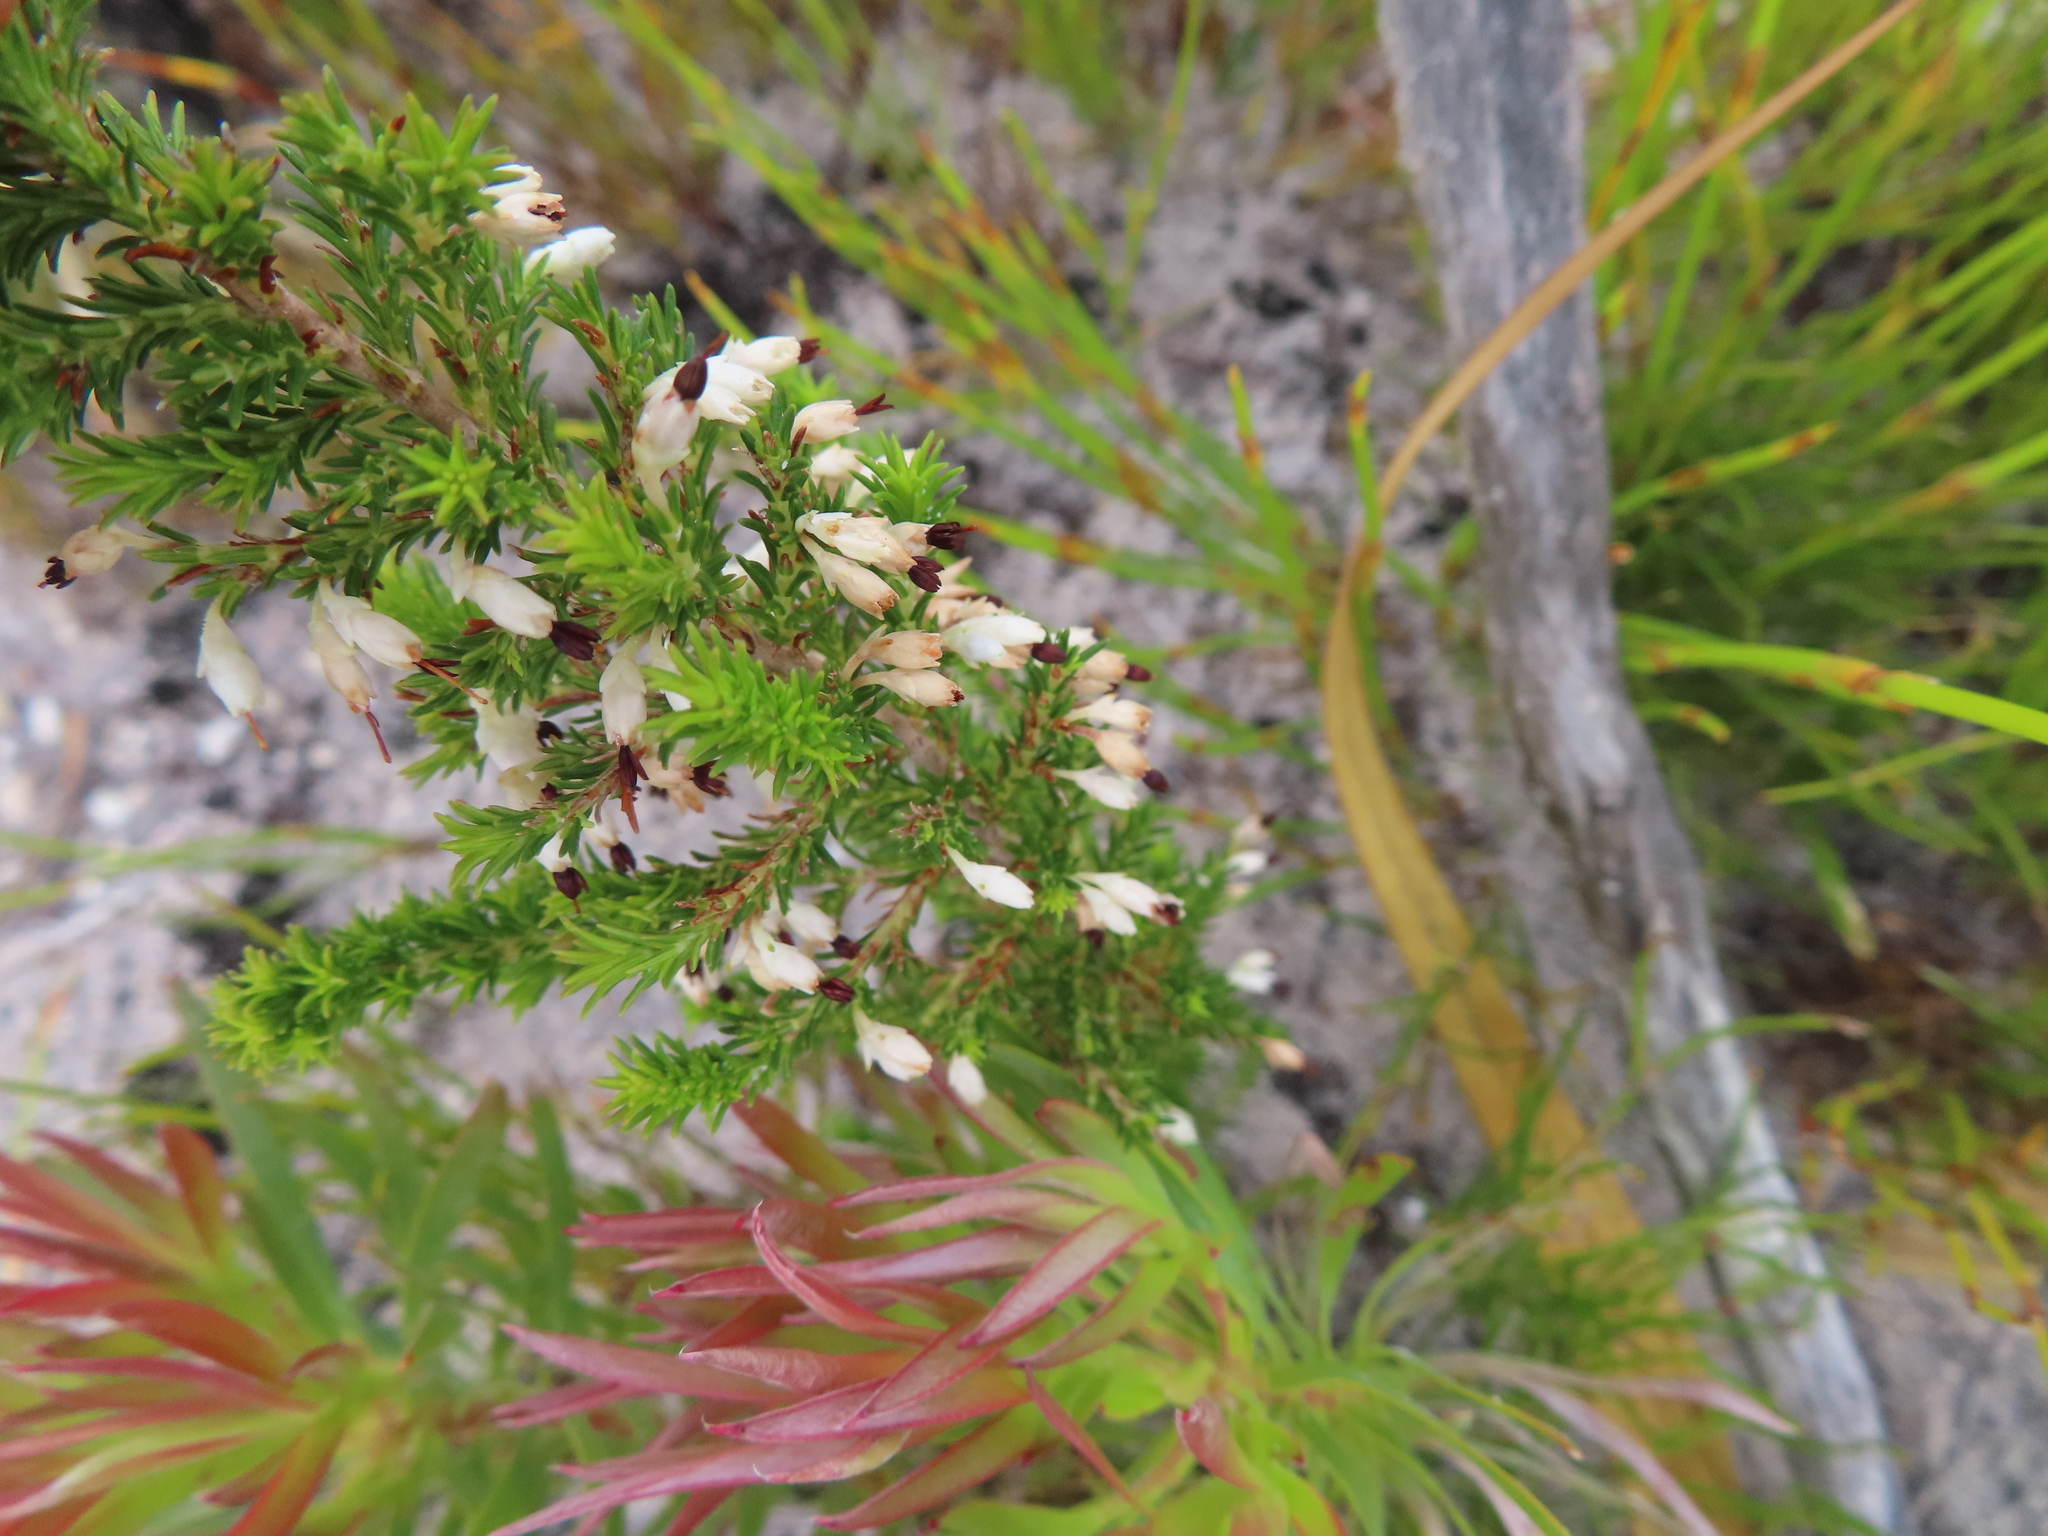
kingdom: Plantae
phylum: Tracheophyta
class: Magnoliopsida
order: Ericales
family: Ericaceae
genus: Erica
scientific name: Erica imbricata
